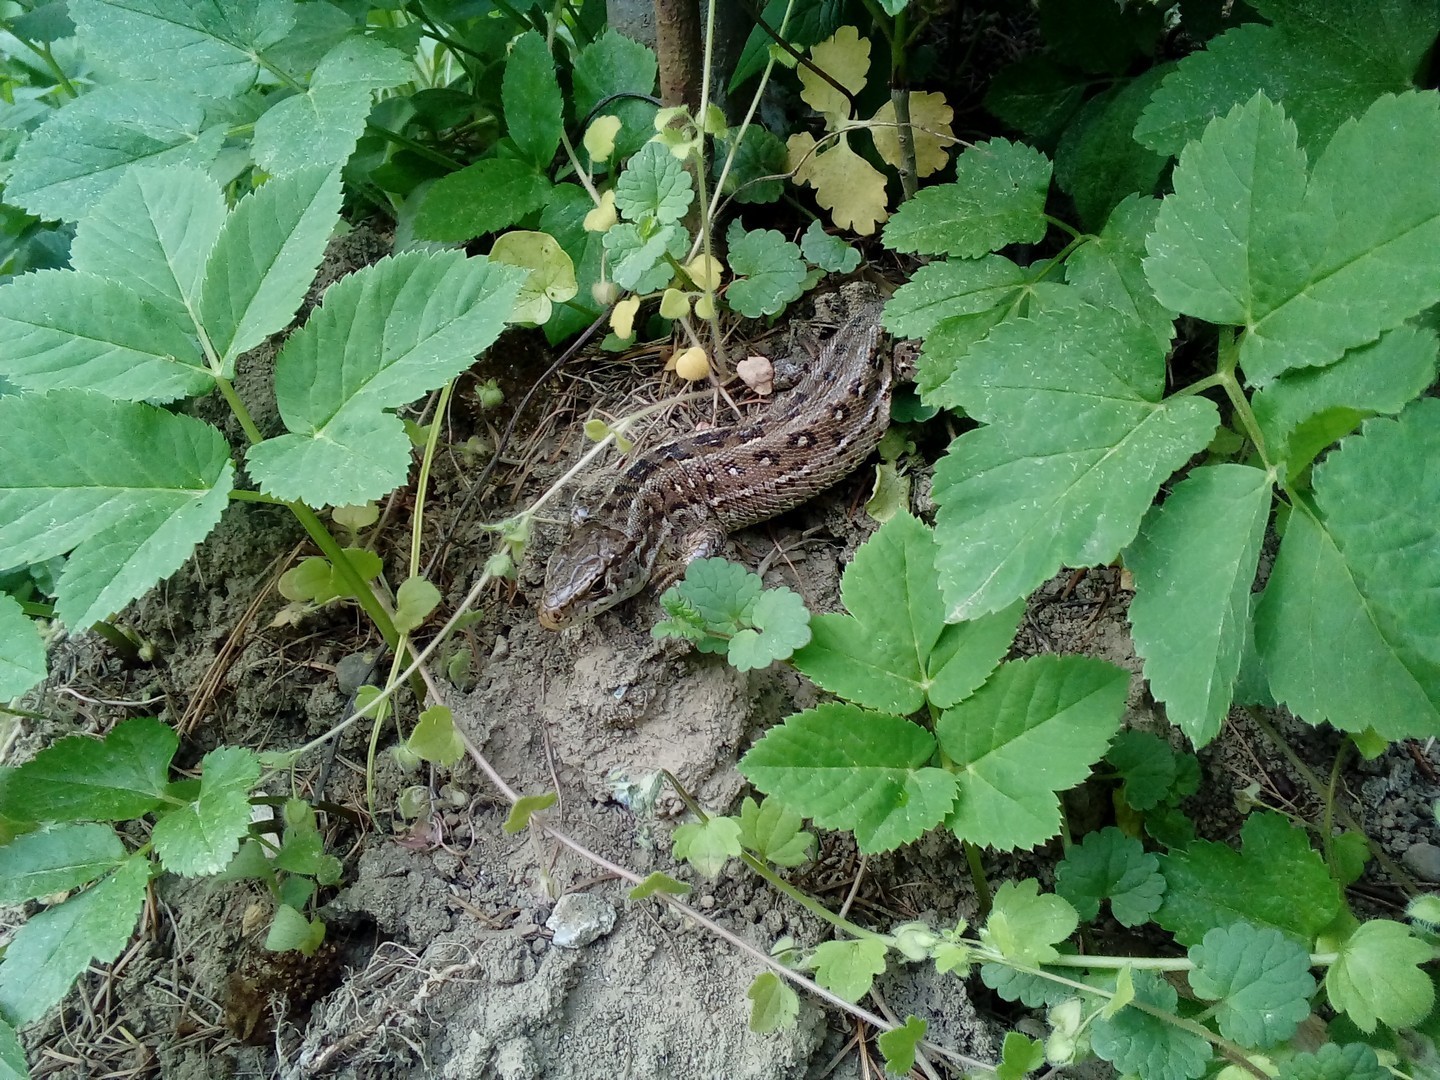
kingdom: Animalia
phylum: Chordata
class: Squamata
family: Lacertidae
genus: Lacerta
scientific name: Lacerta agilis
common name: Sand lizard
